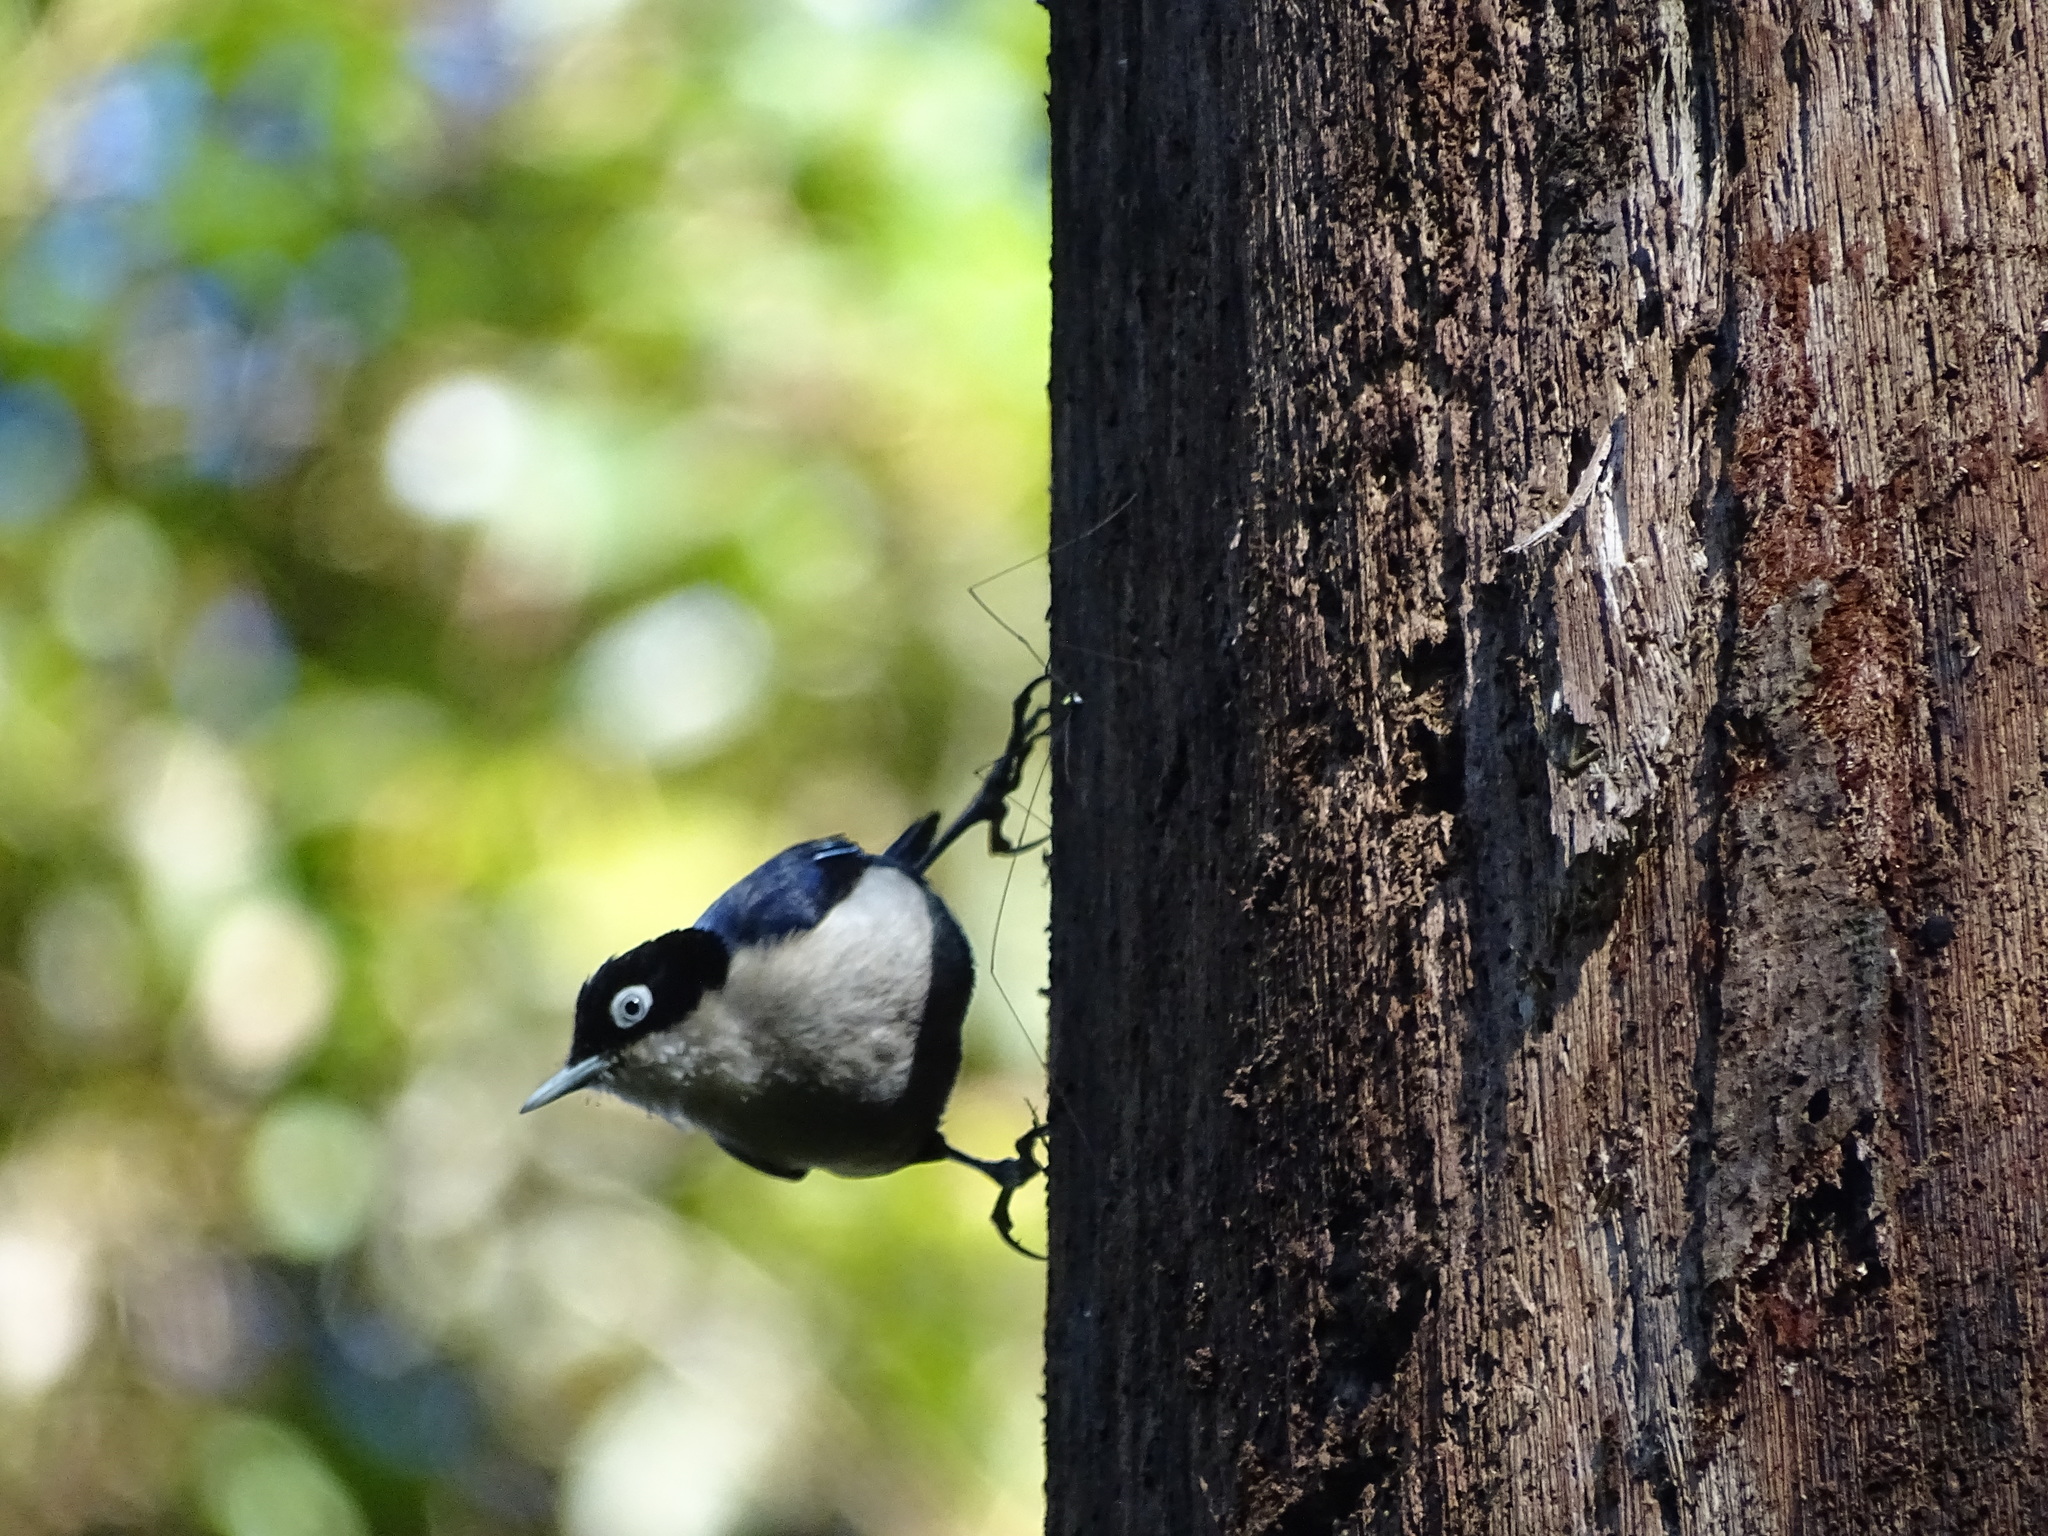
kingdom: Animalia
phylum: Chordata
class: Aves
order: Passeriformes
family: Sittidae
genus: Sitta
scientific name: Sitta azurea
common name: Blue nuthatch
